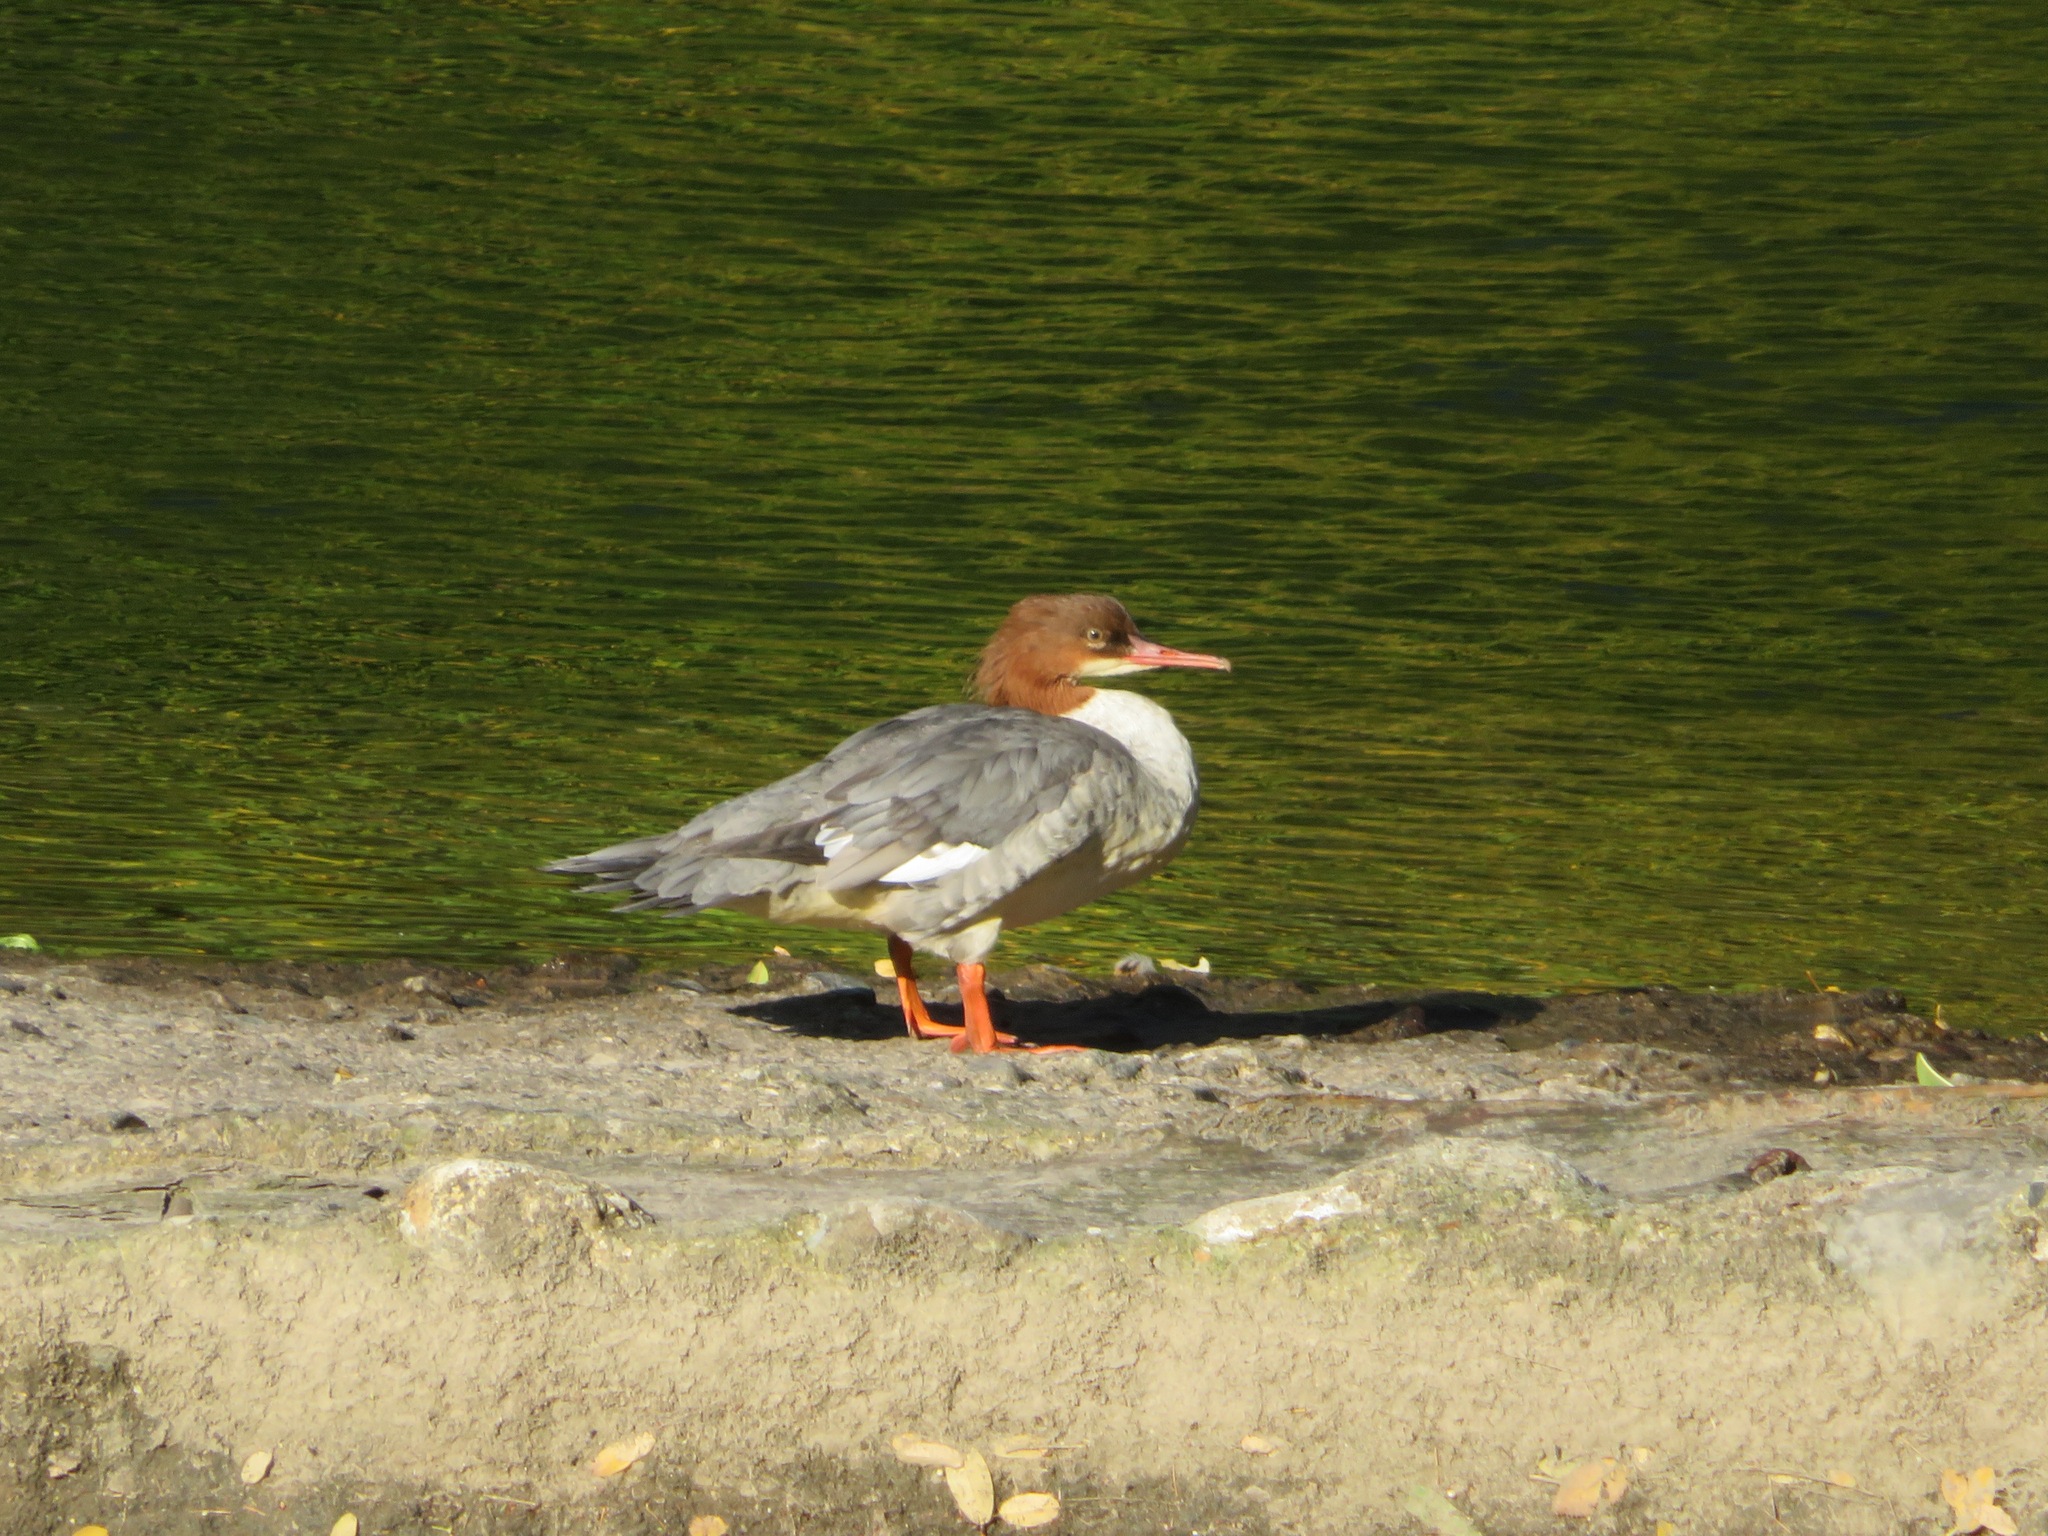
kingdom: Animalia
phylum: Chordata
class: Aves
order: Anseriformes
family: Anatidae
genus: Mergus
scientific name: Mergus merganser
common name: Common merganser
